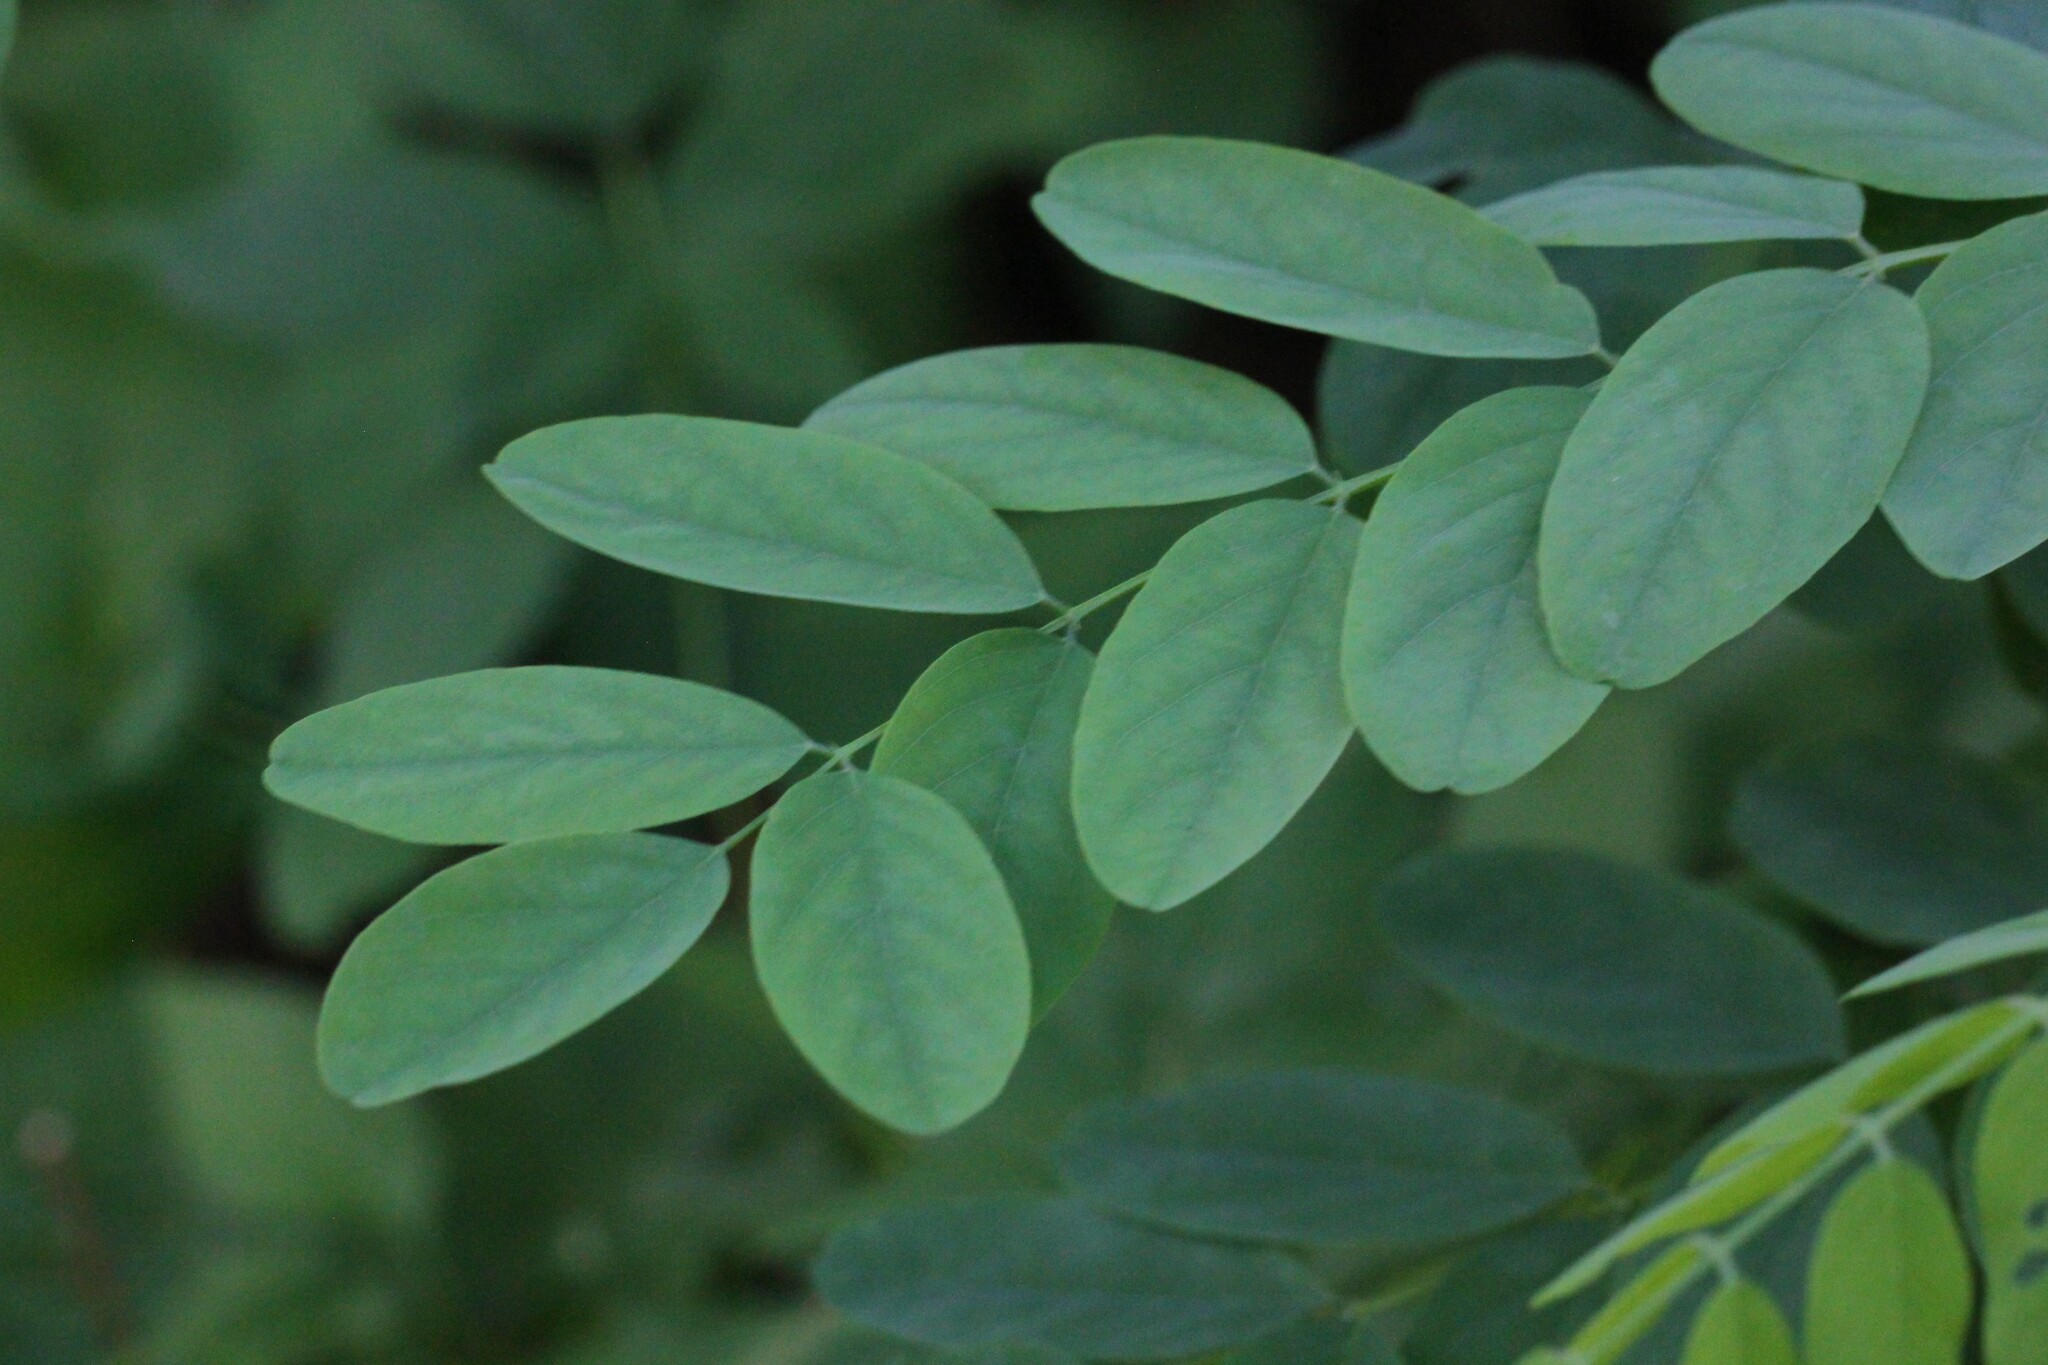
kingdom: Plantae
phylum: Tracheophyta
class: Magnoliopsida
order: Fabales
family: Fabaceae
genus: Robinia
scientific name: Robinia pseudoacacia
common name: Black locust
